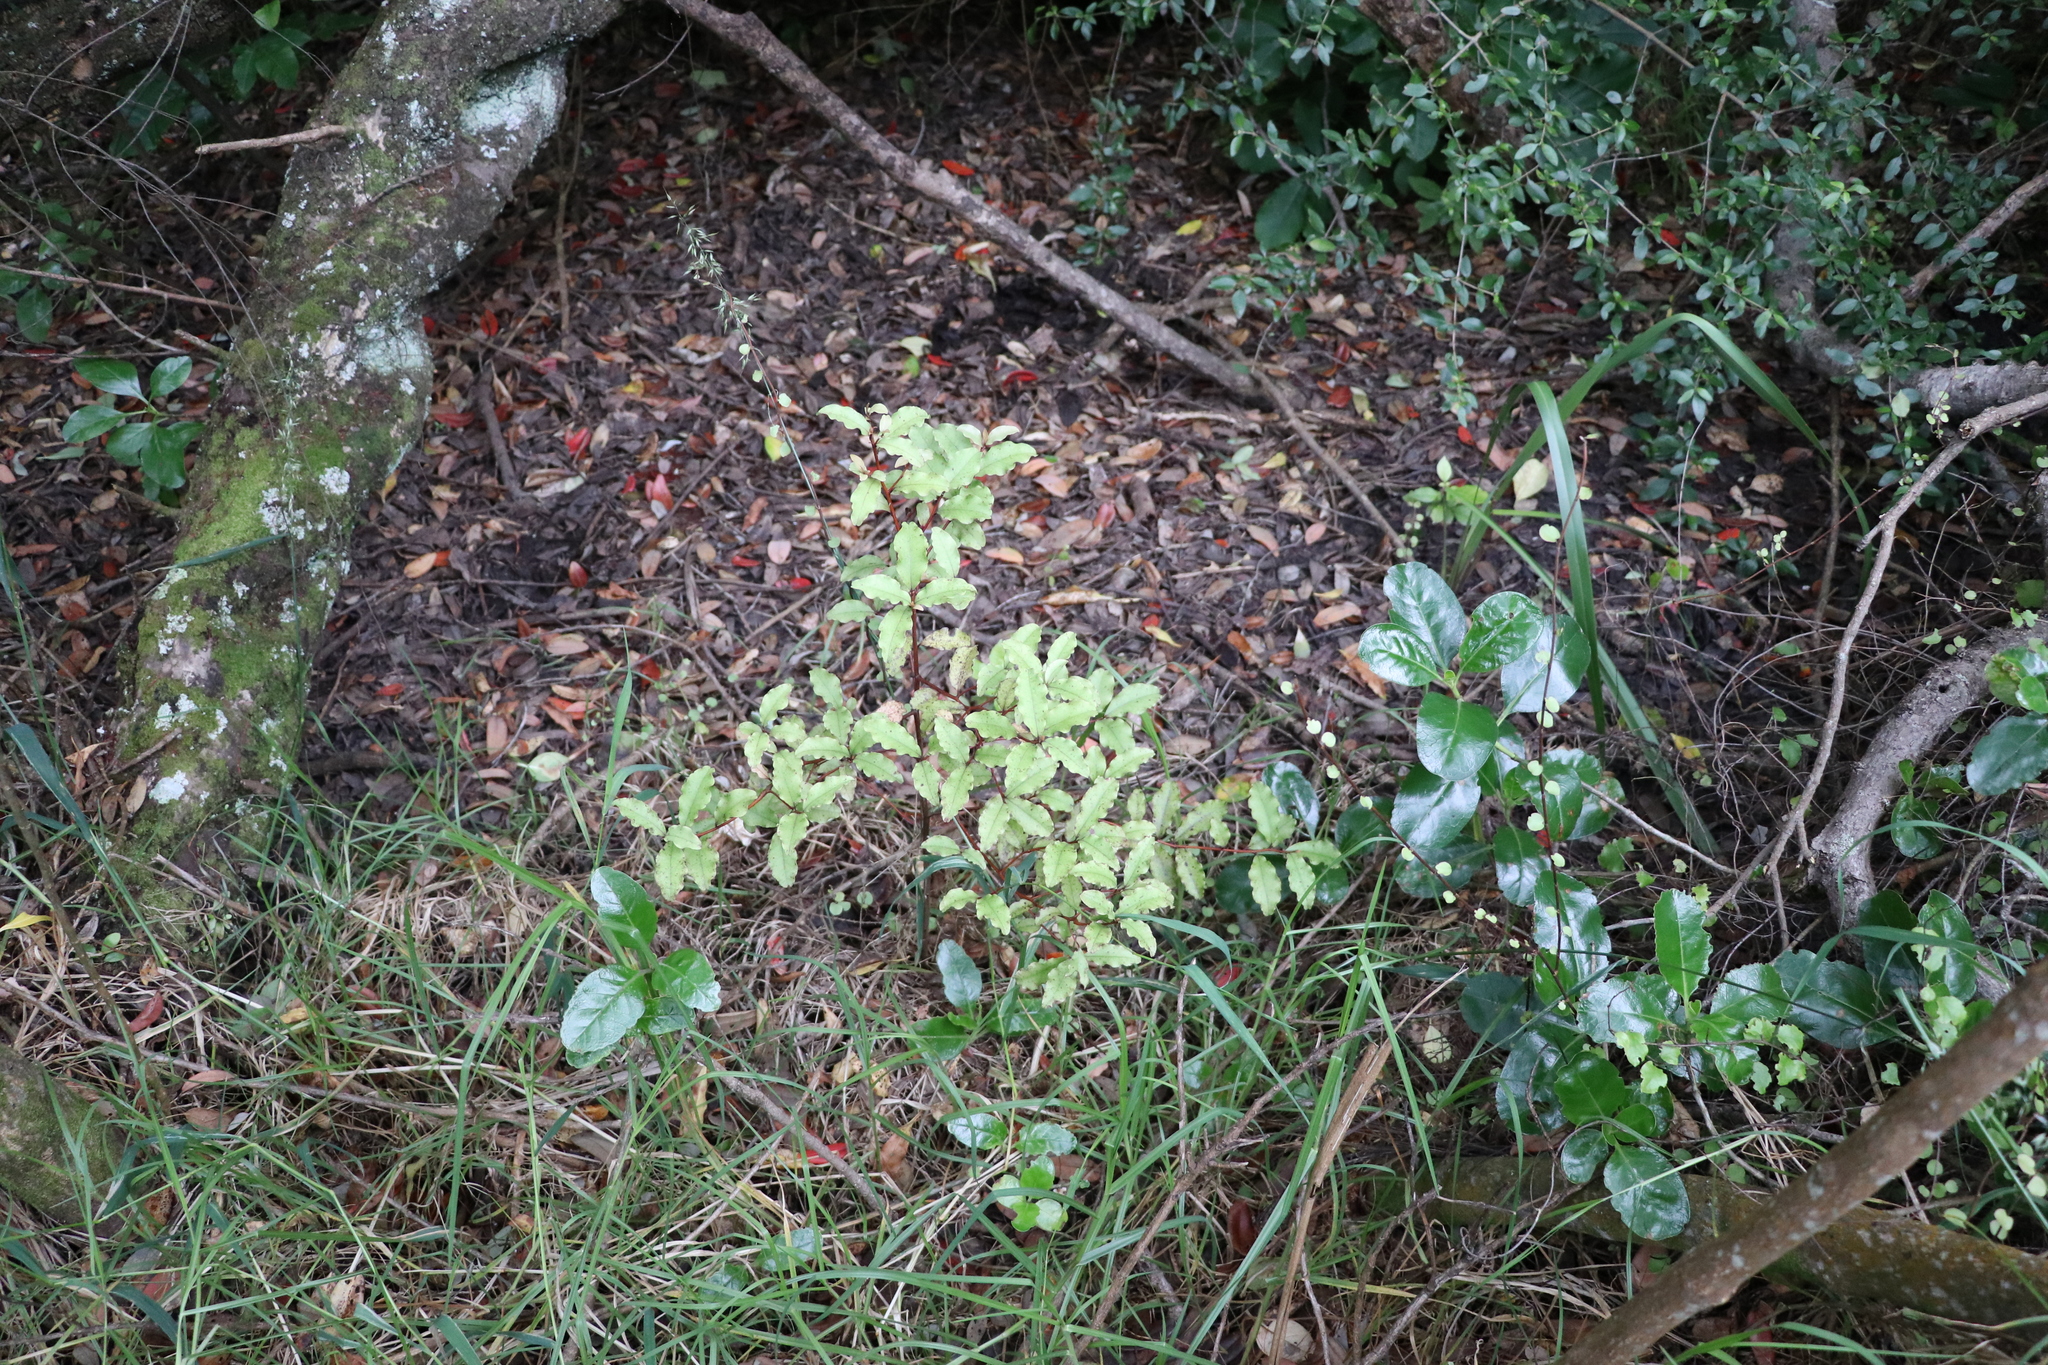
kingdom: Plantae
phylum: Tracheophyta
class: Magnoliopsida
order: Ericales
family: Primulaceae
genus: Myrsine
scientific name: Myrsine australis
